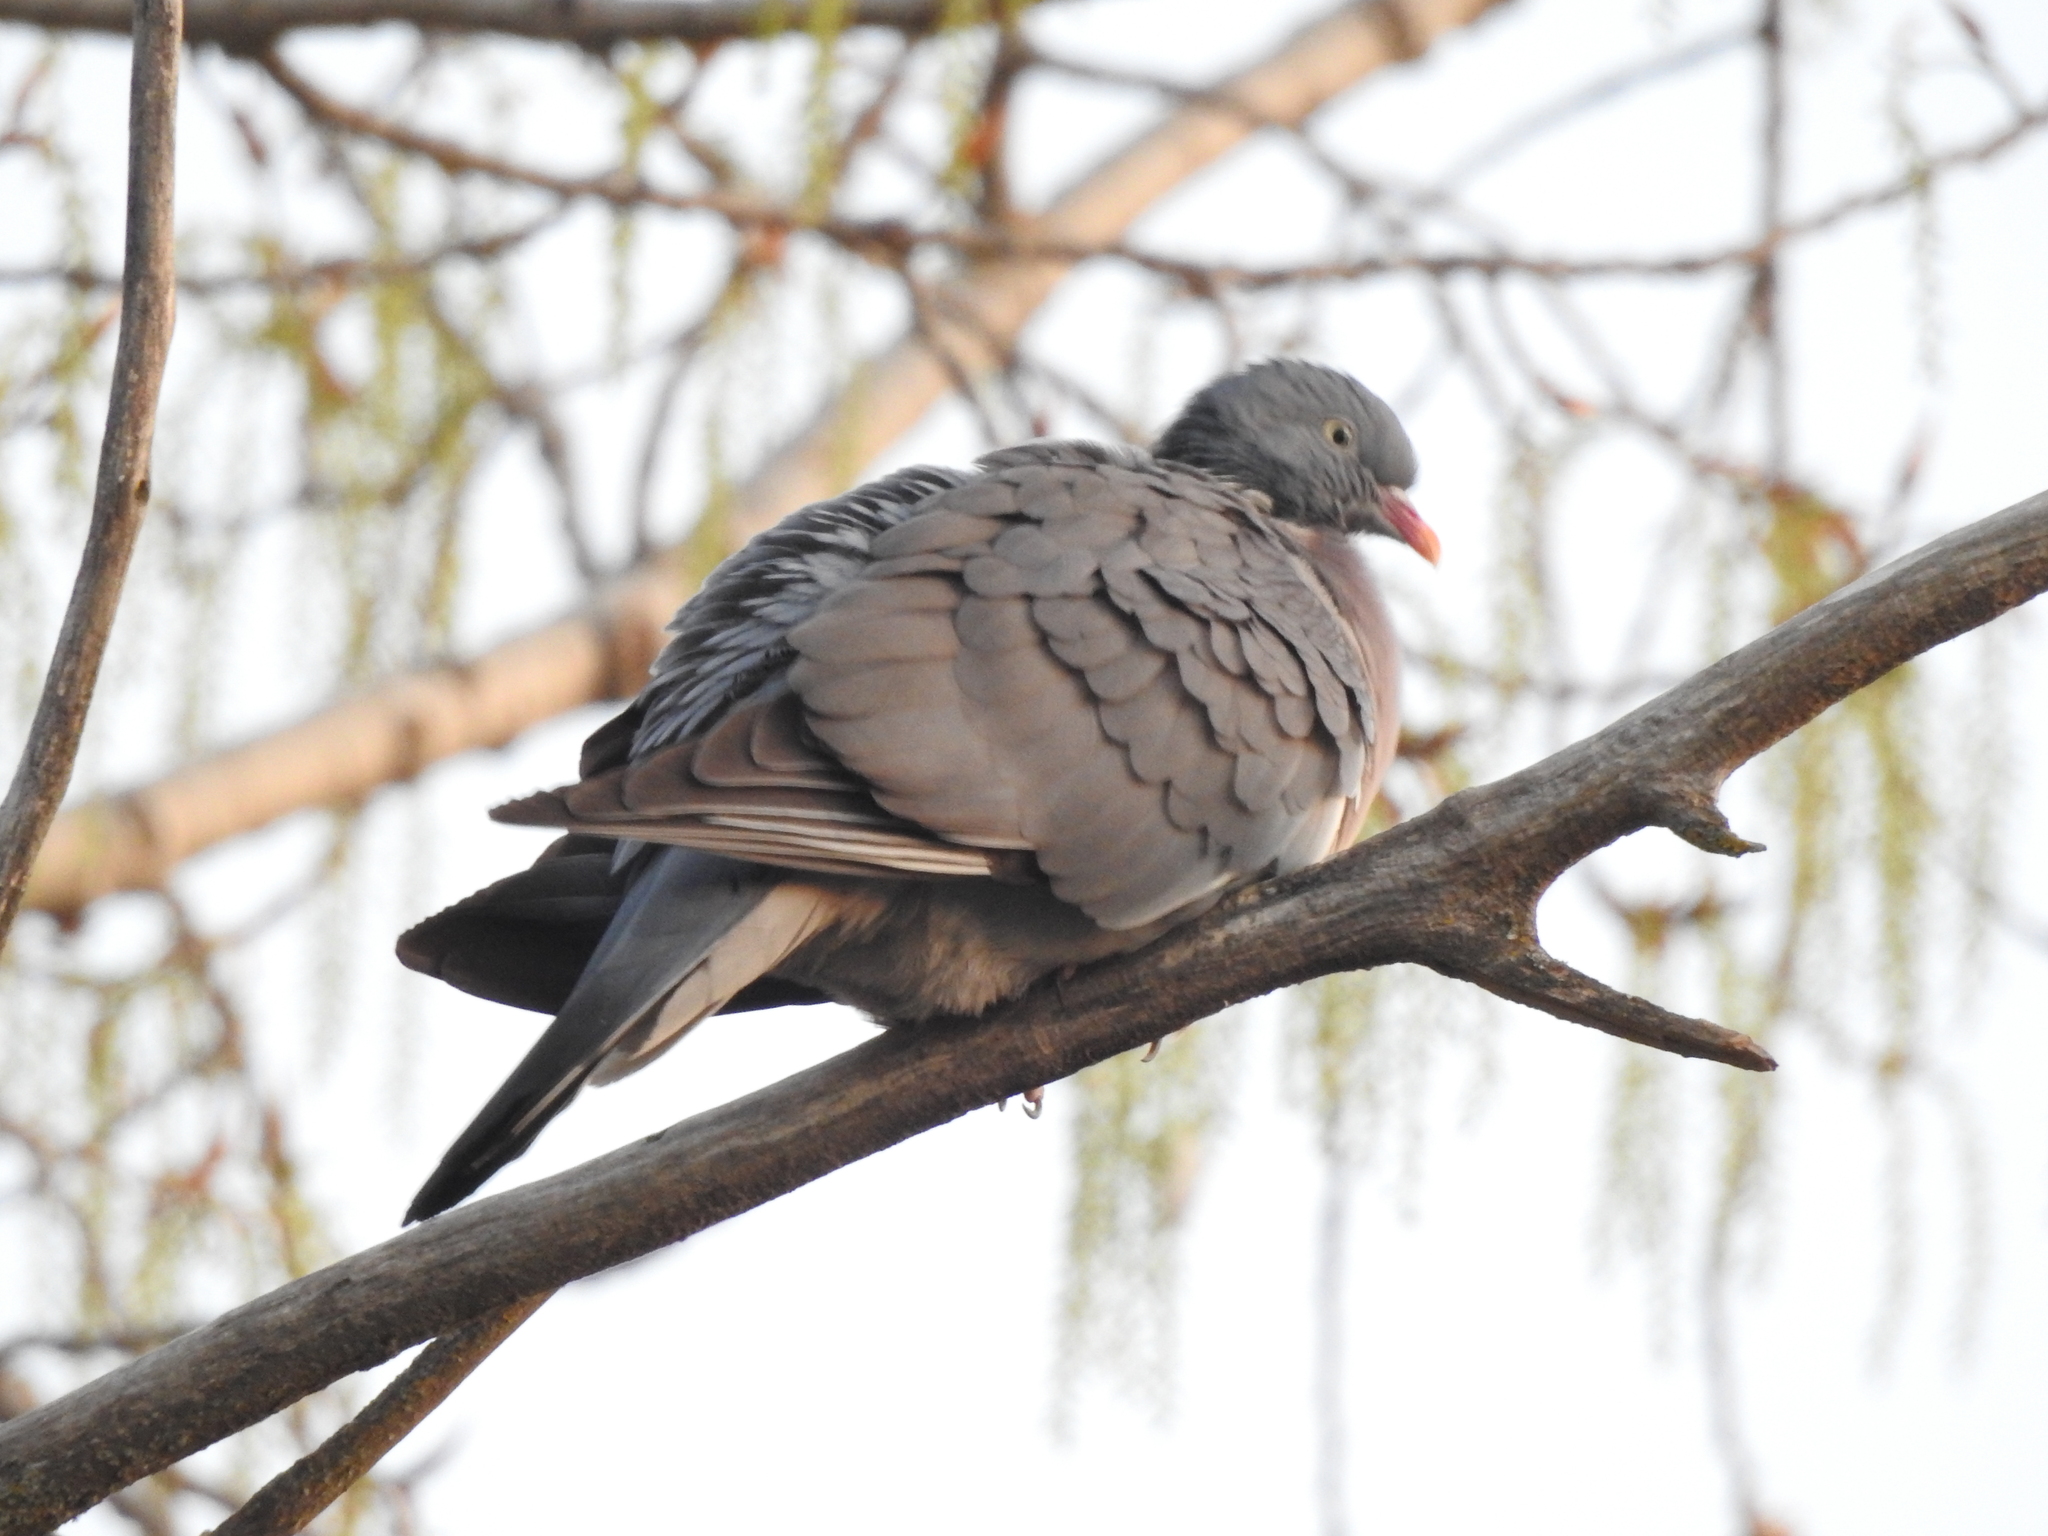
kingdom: Animalia
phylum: Chordata
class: Aves
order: Columbiformes
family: Columbidae
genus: Columba
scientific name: Columba palumbus
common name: Common wood pigeon
